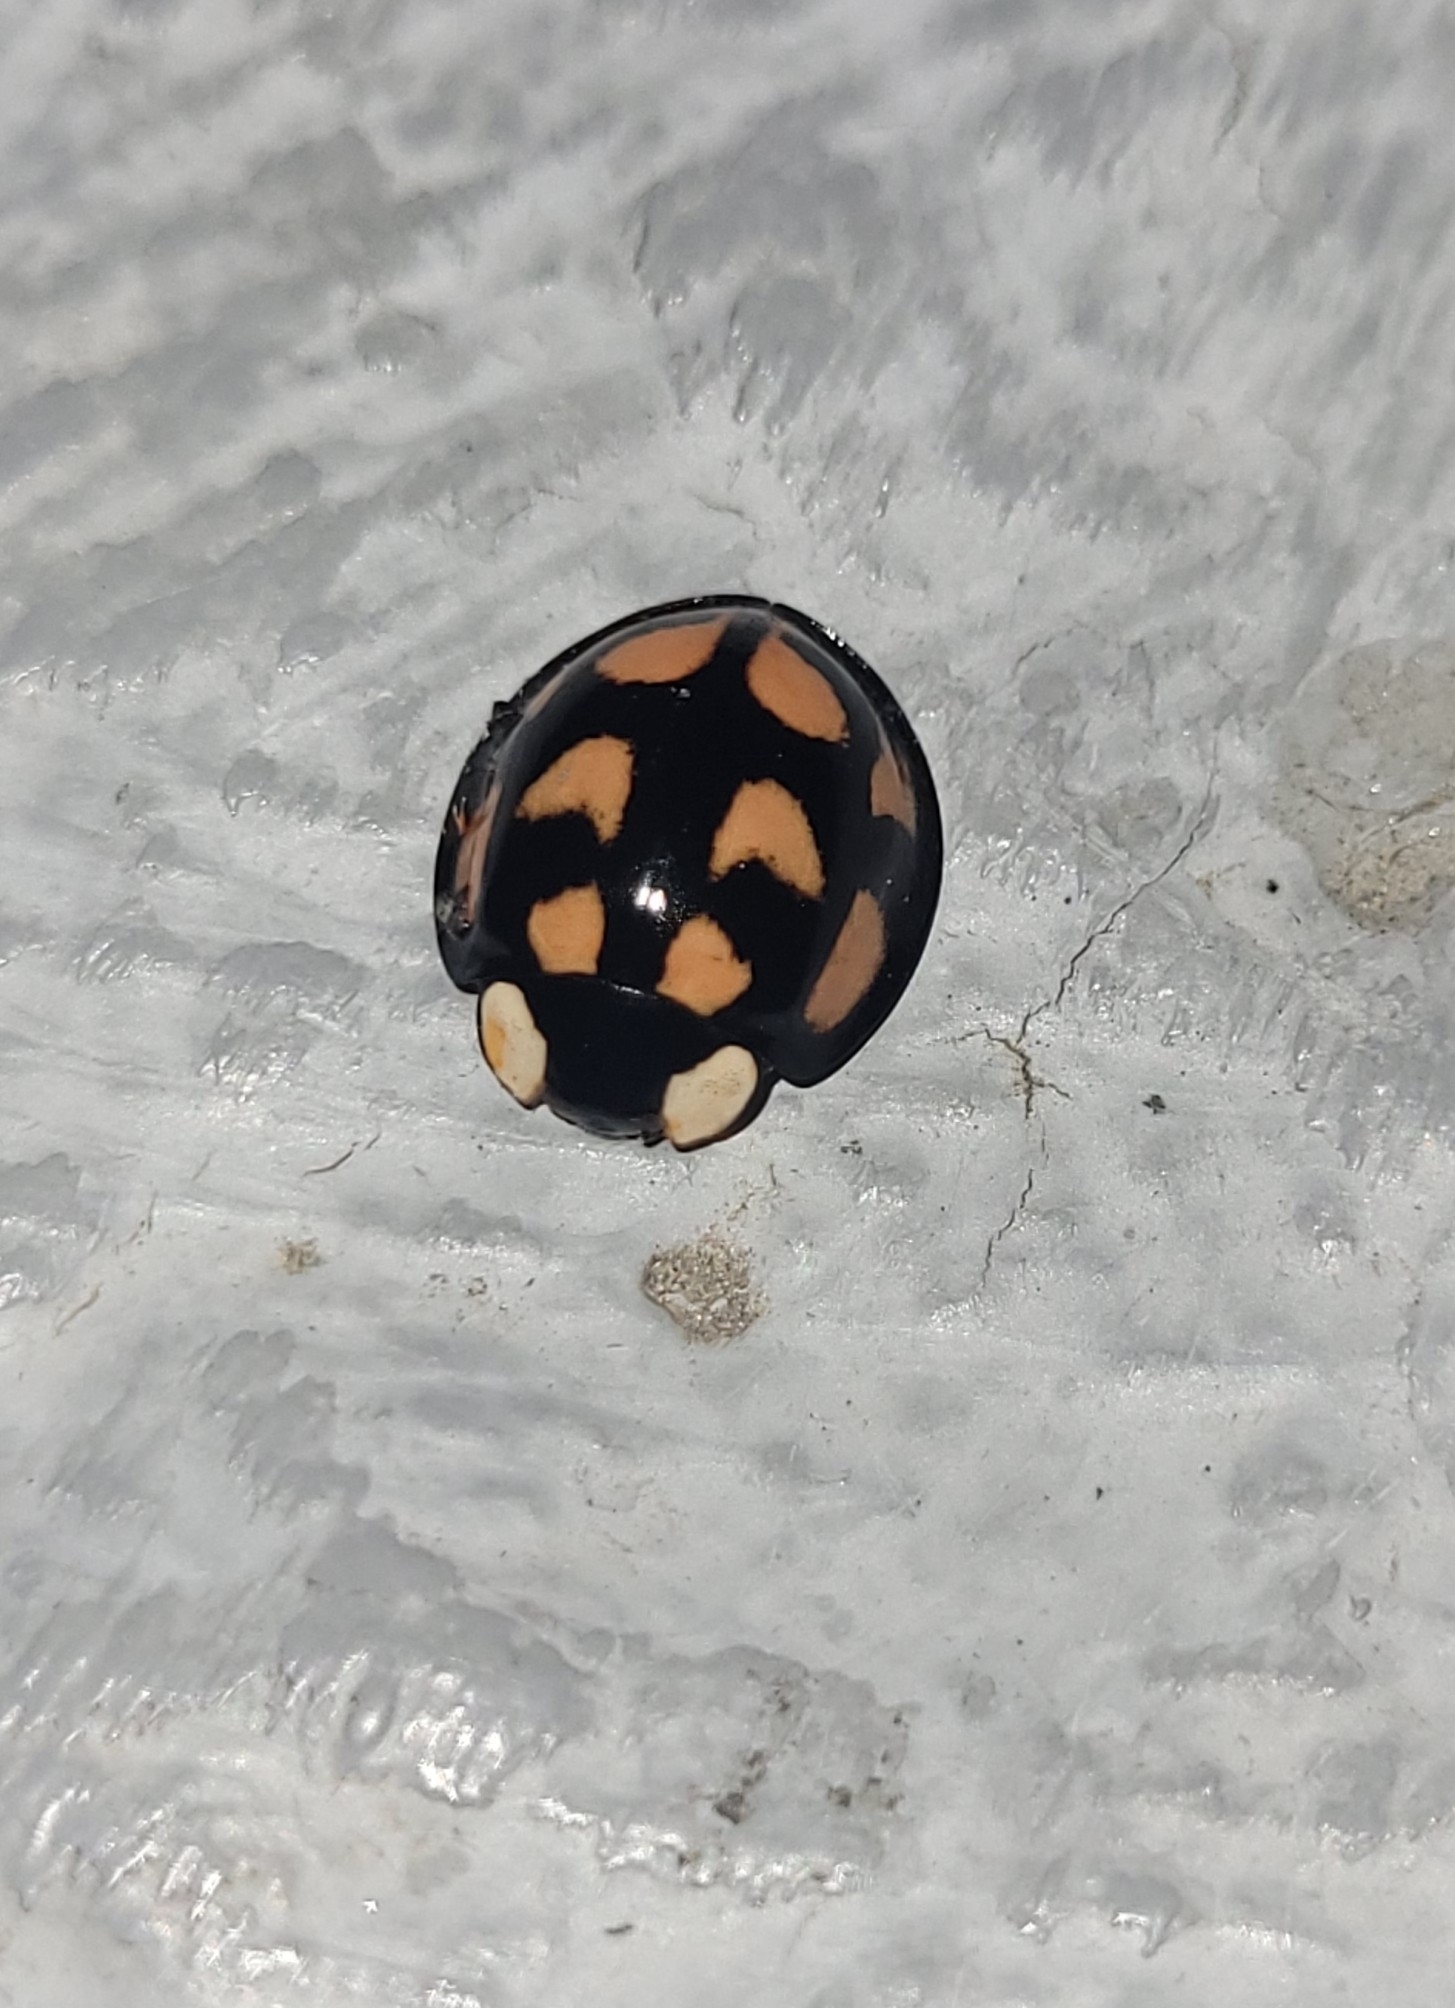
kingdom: Animalia
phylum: Arthropoda
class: Insecta
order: Coleoptera
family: Coccinellidae
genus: Aiolocaria
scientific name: Aiolocaria hexaspilota
